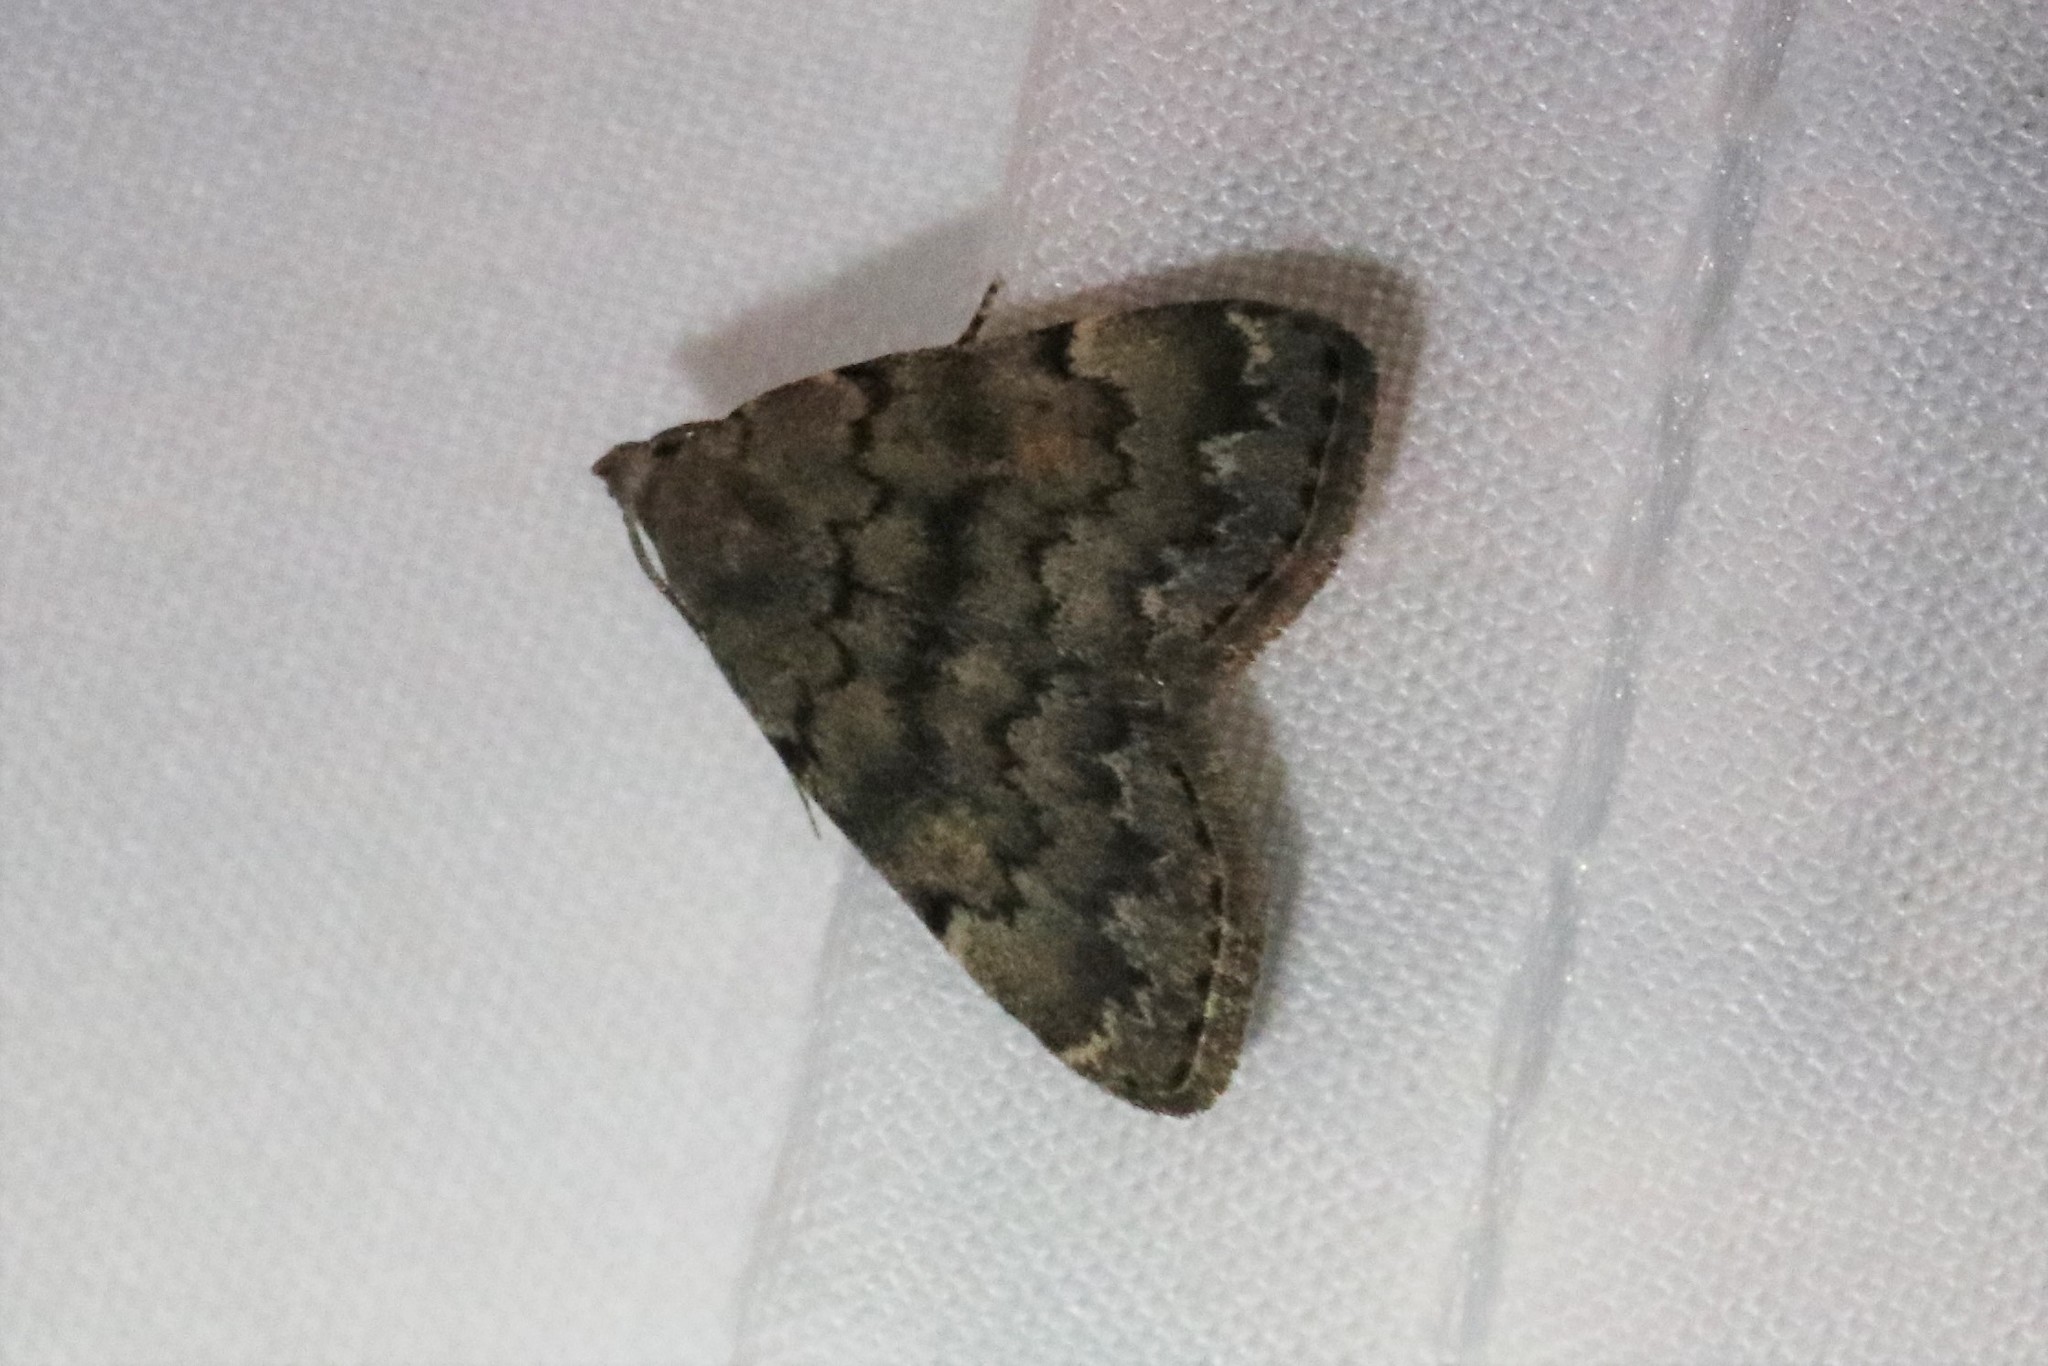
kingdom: Animalia
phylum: Arthropoda
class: Insecta
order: Lepidoptera
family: Erebidae
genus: Idia
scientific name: Idia aemula
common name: Common idia moth
